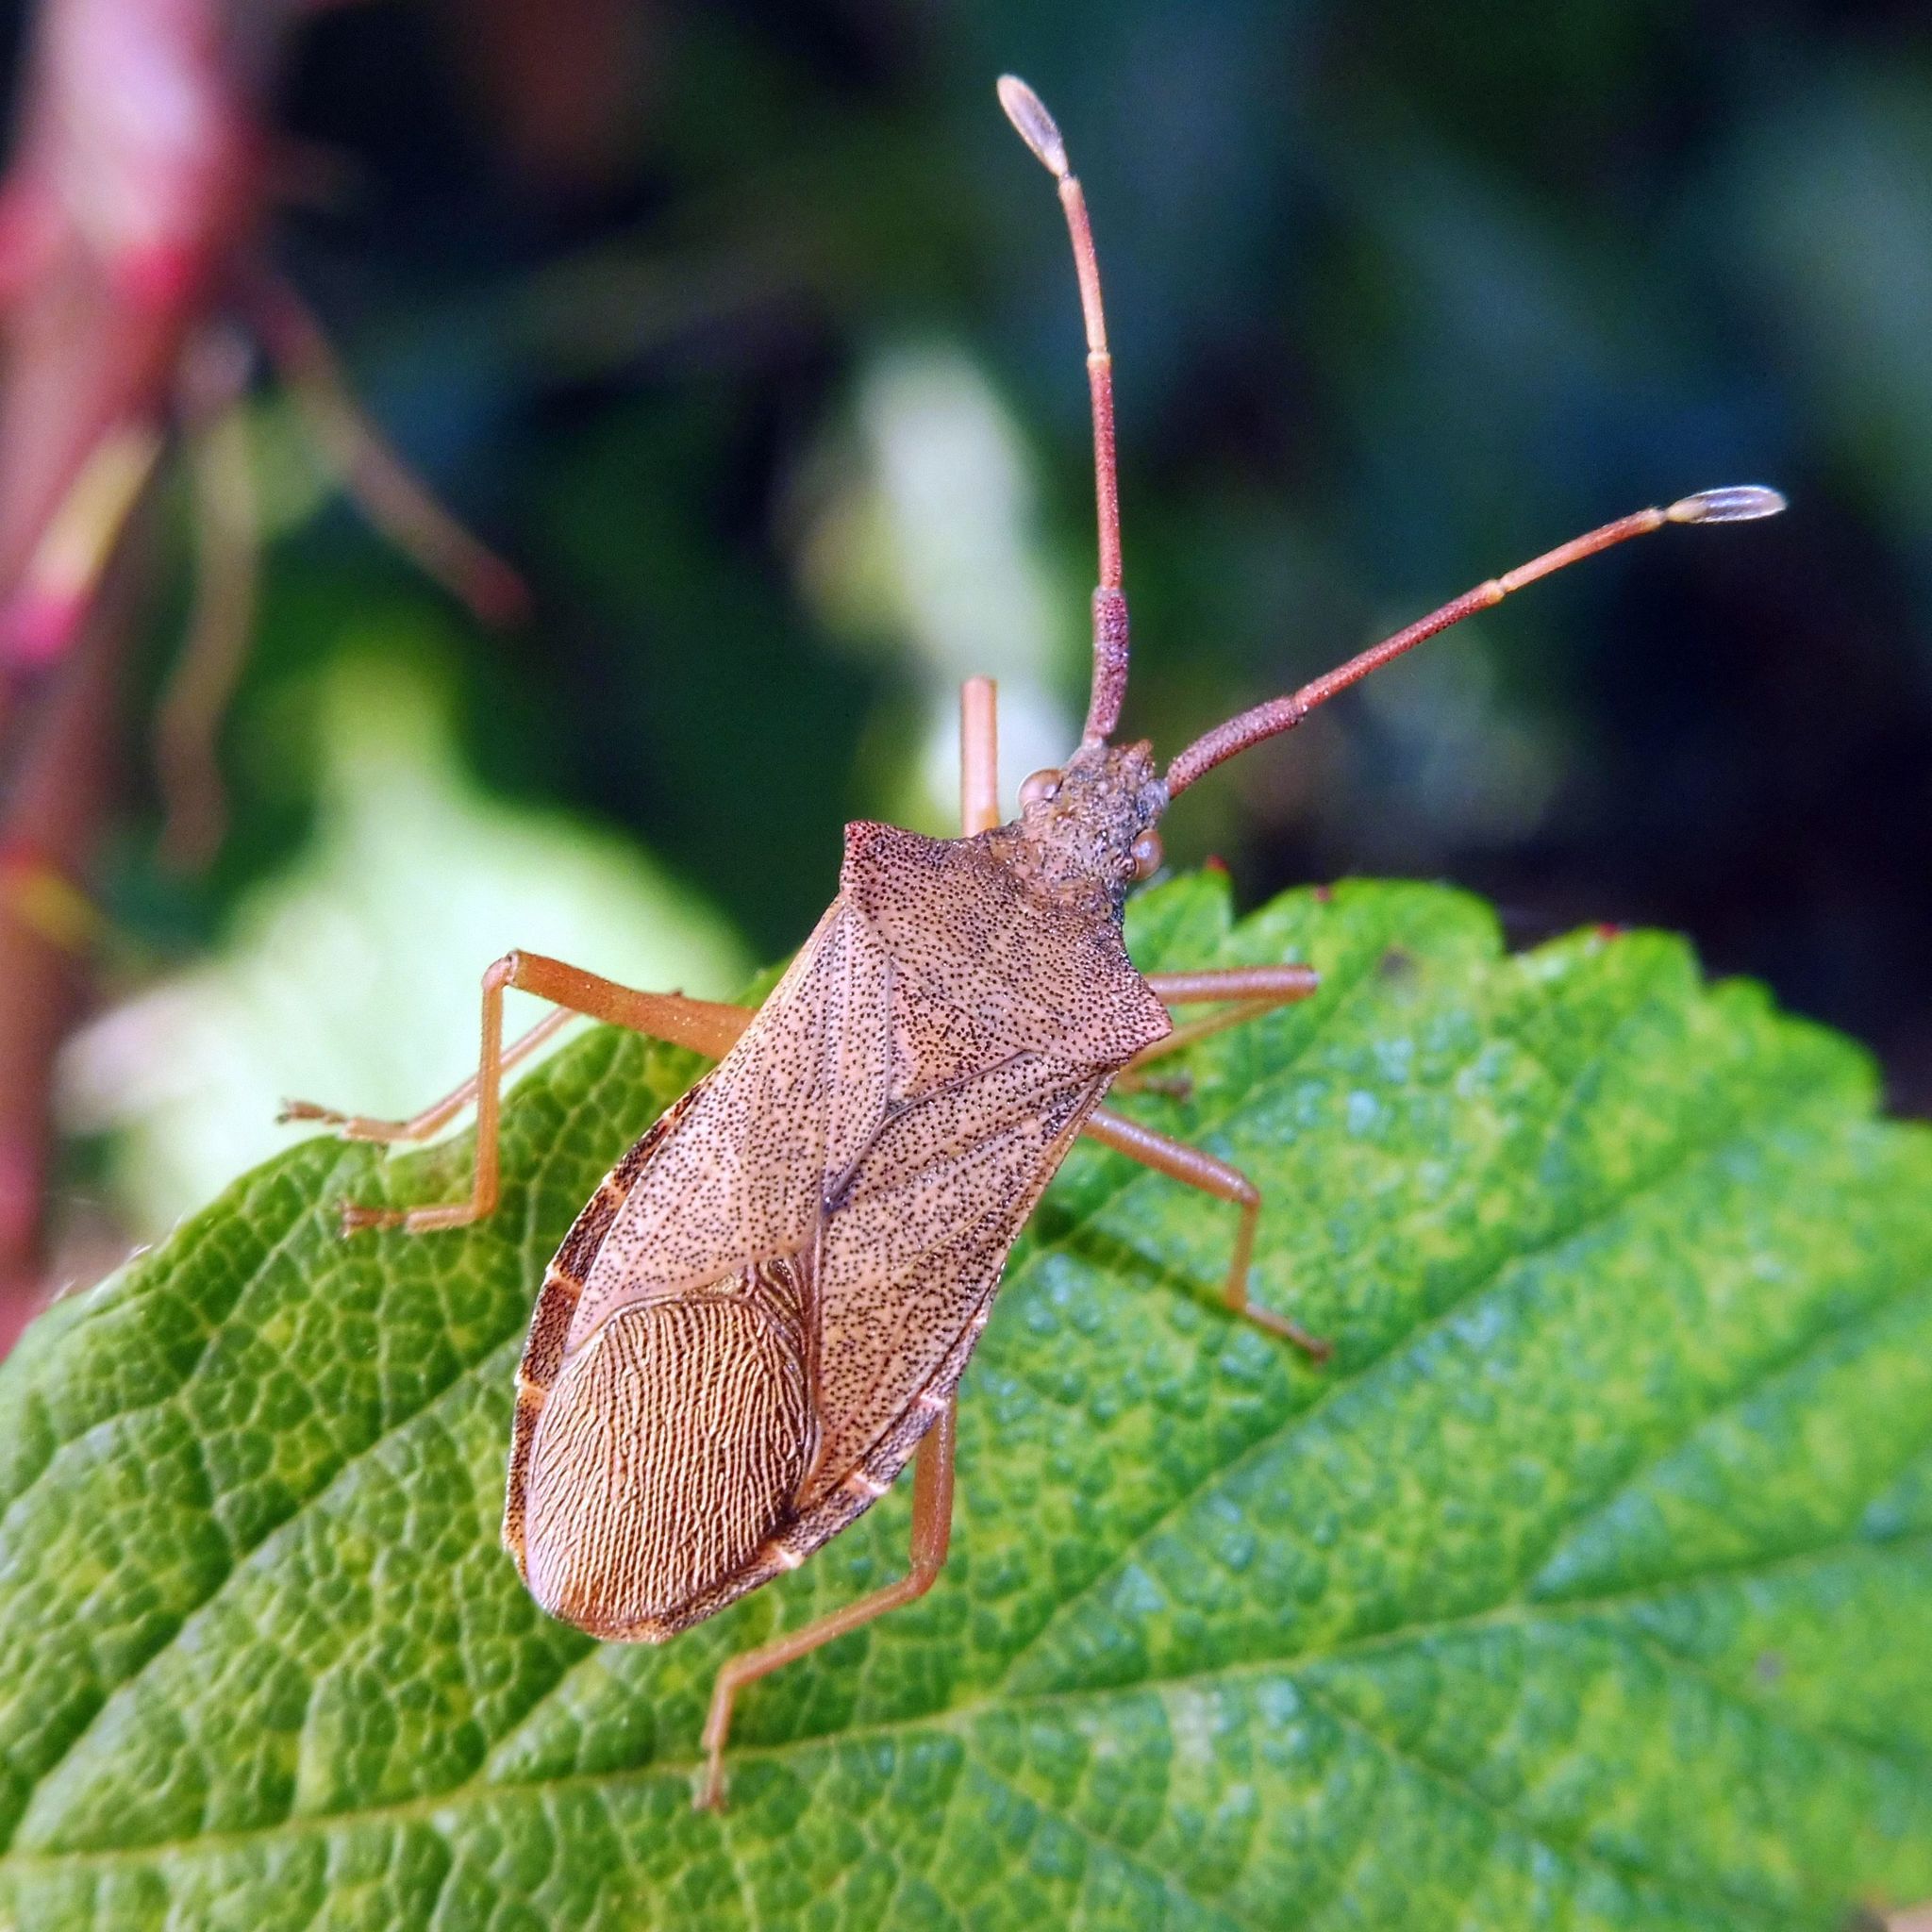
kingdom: Animalia
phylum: Arthropoda
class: Insecta
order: Hemiptera
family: Coreidae
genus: Gonocerus
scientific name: Gonocerus acuteangulatus
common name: Box bug
